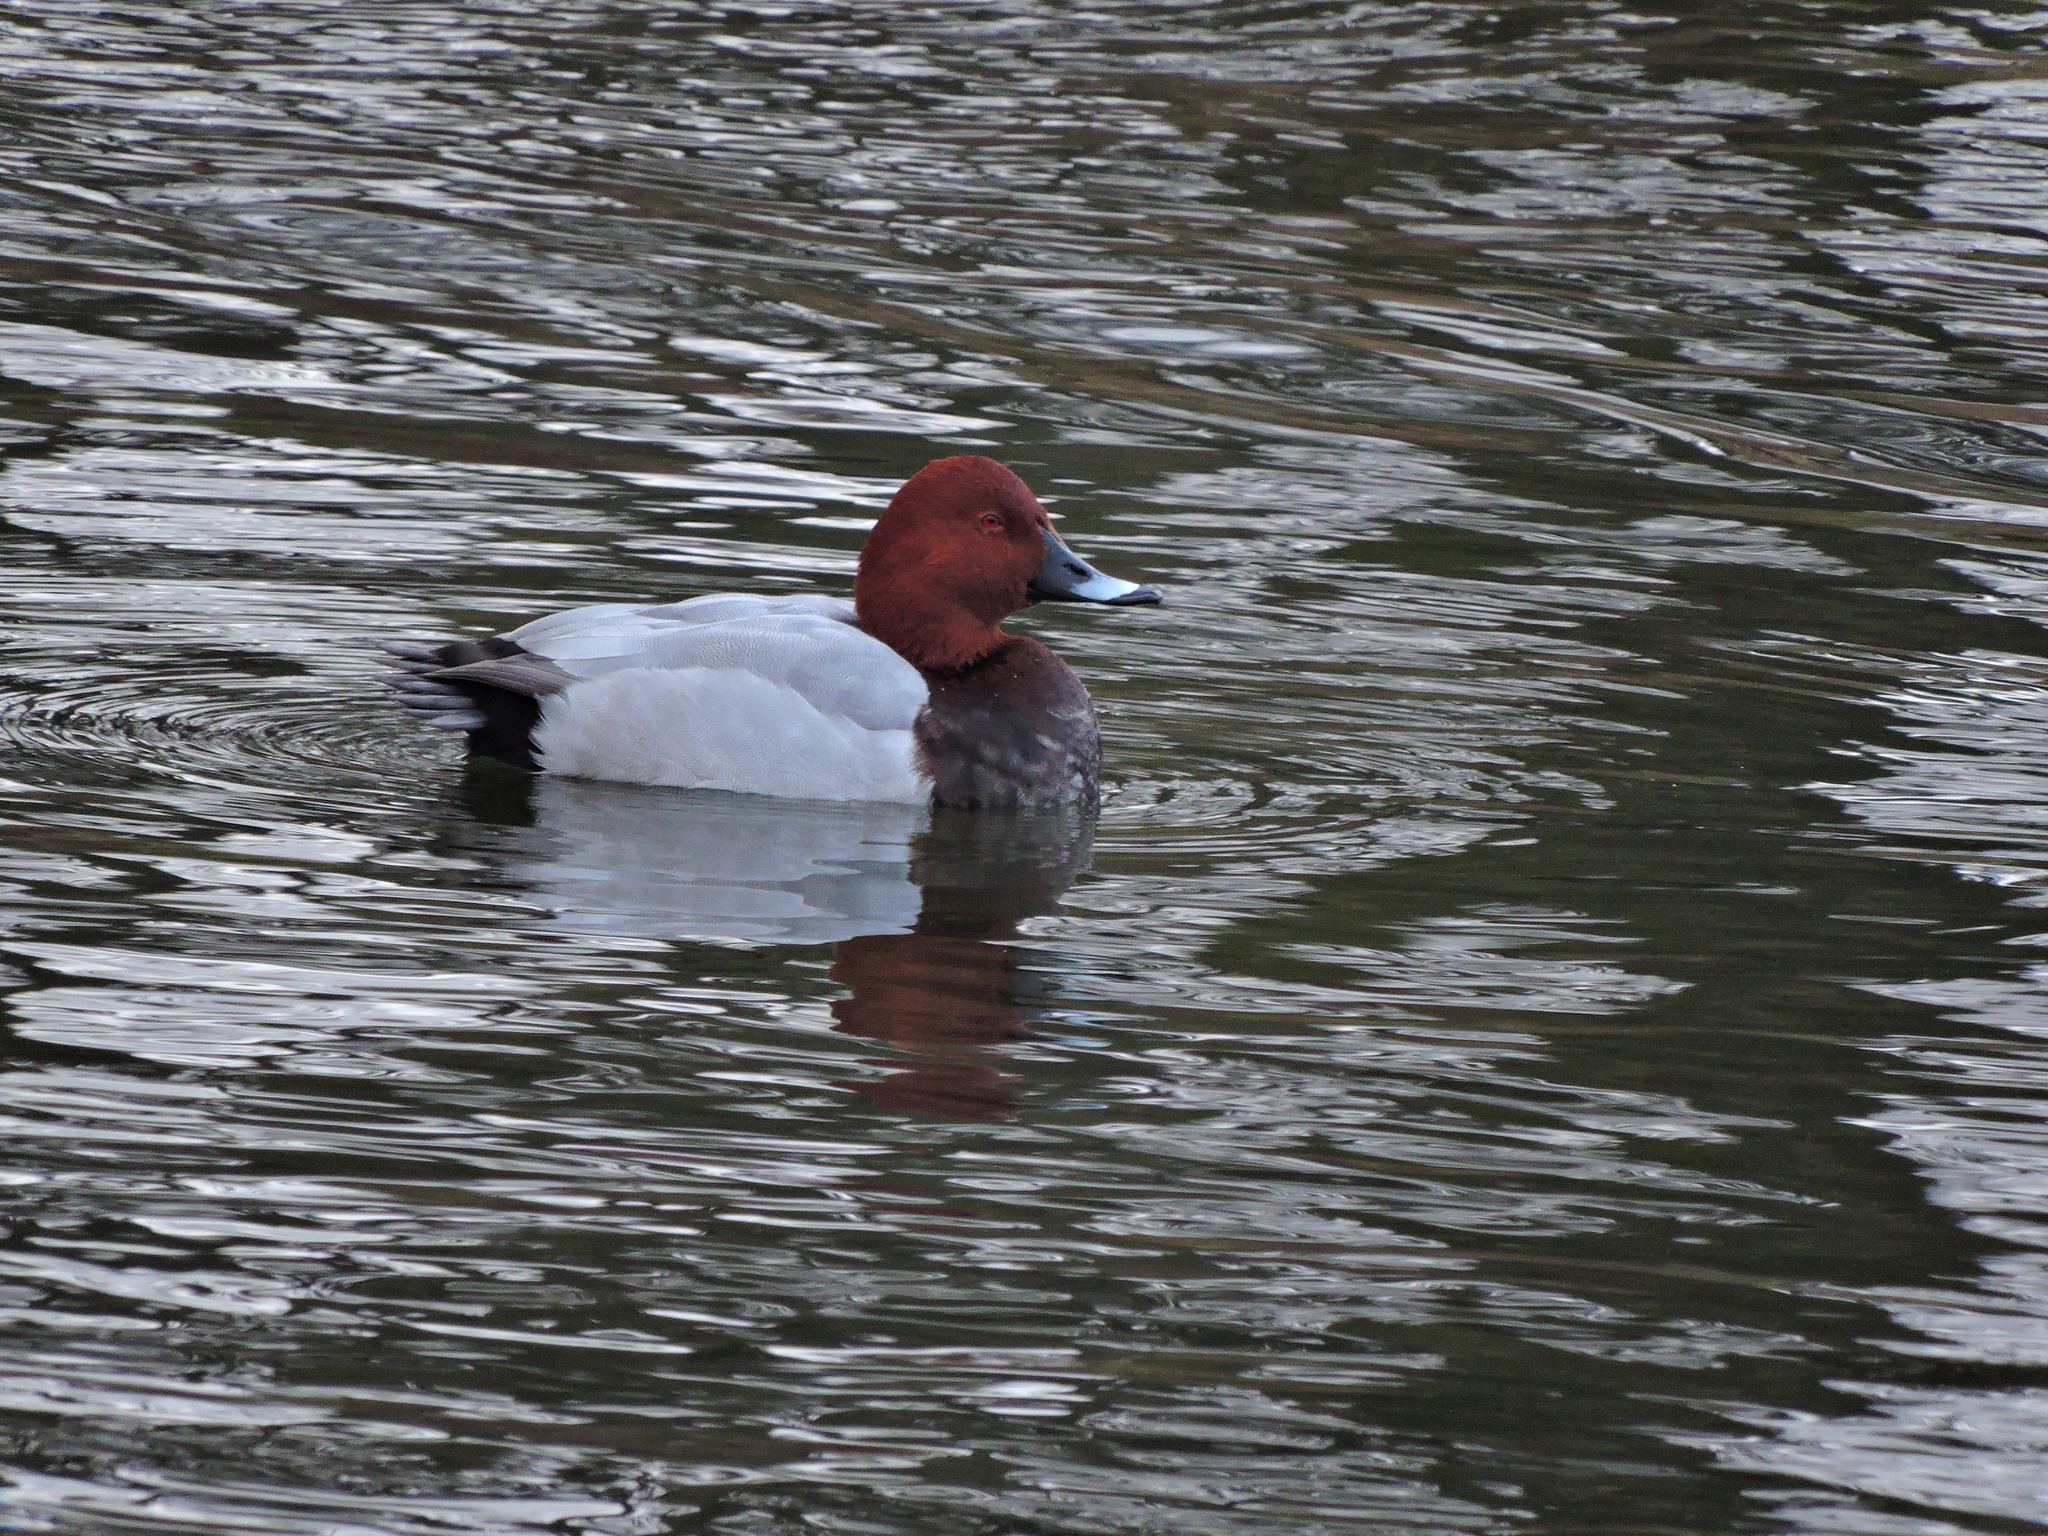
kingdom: Animalia
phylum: Chordata
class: Aves
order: Anseriformes
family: Anatidae
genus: Aythya
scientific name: Aythya ferina
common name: Common pochard
